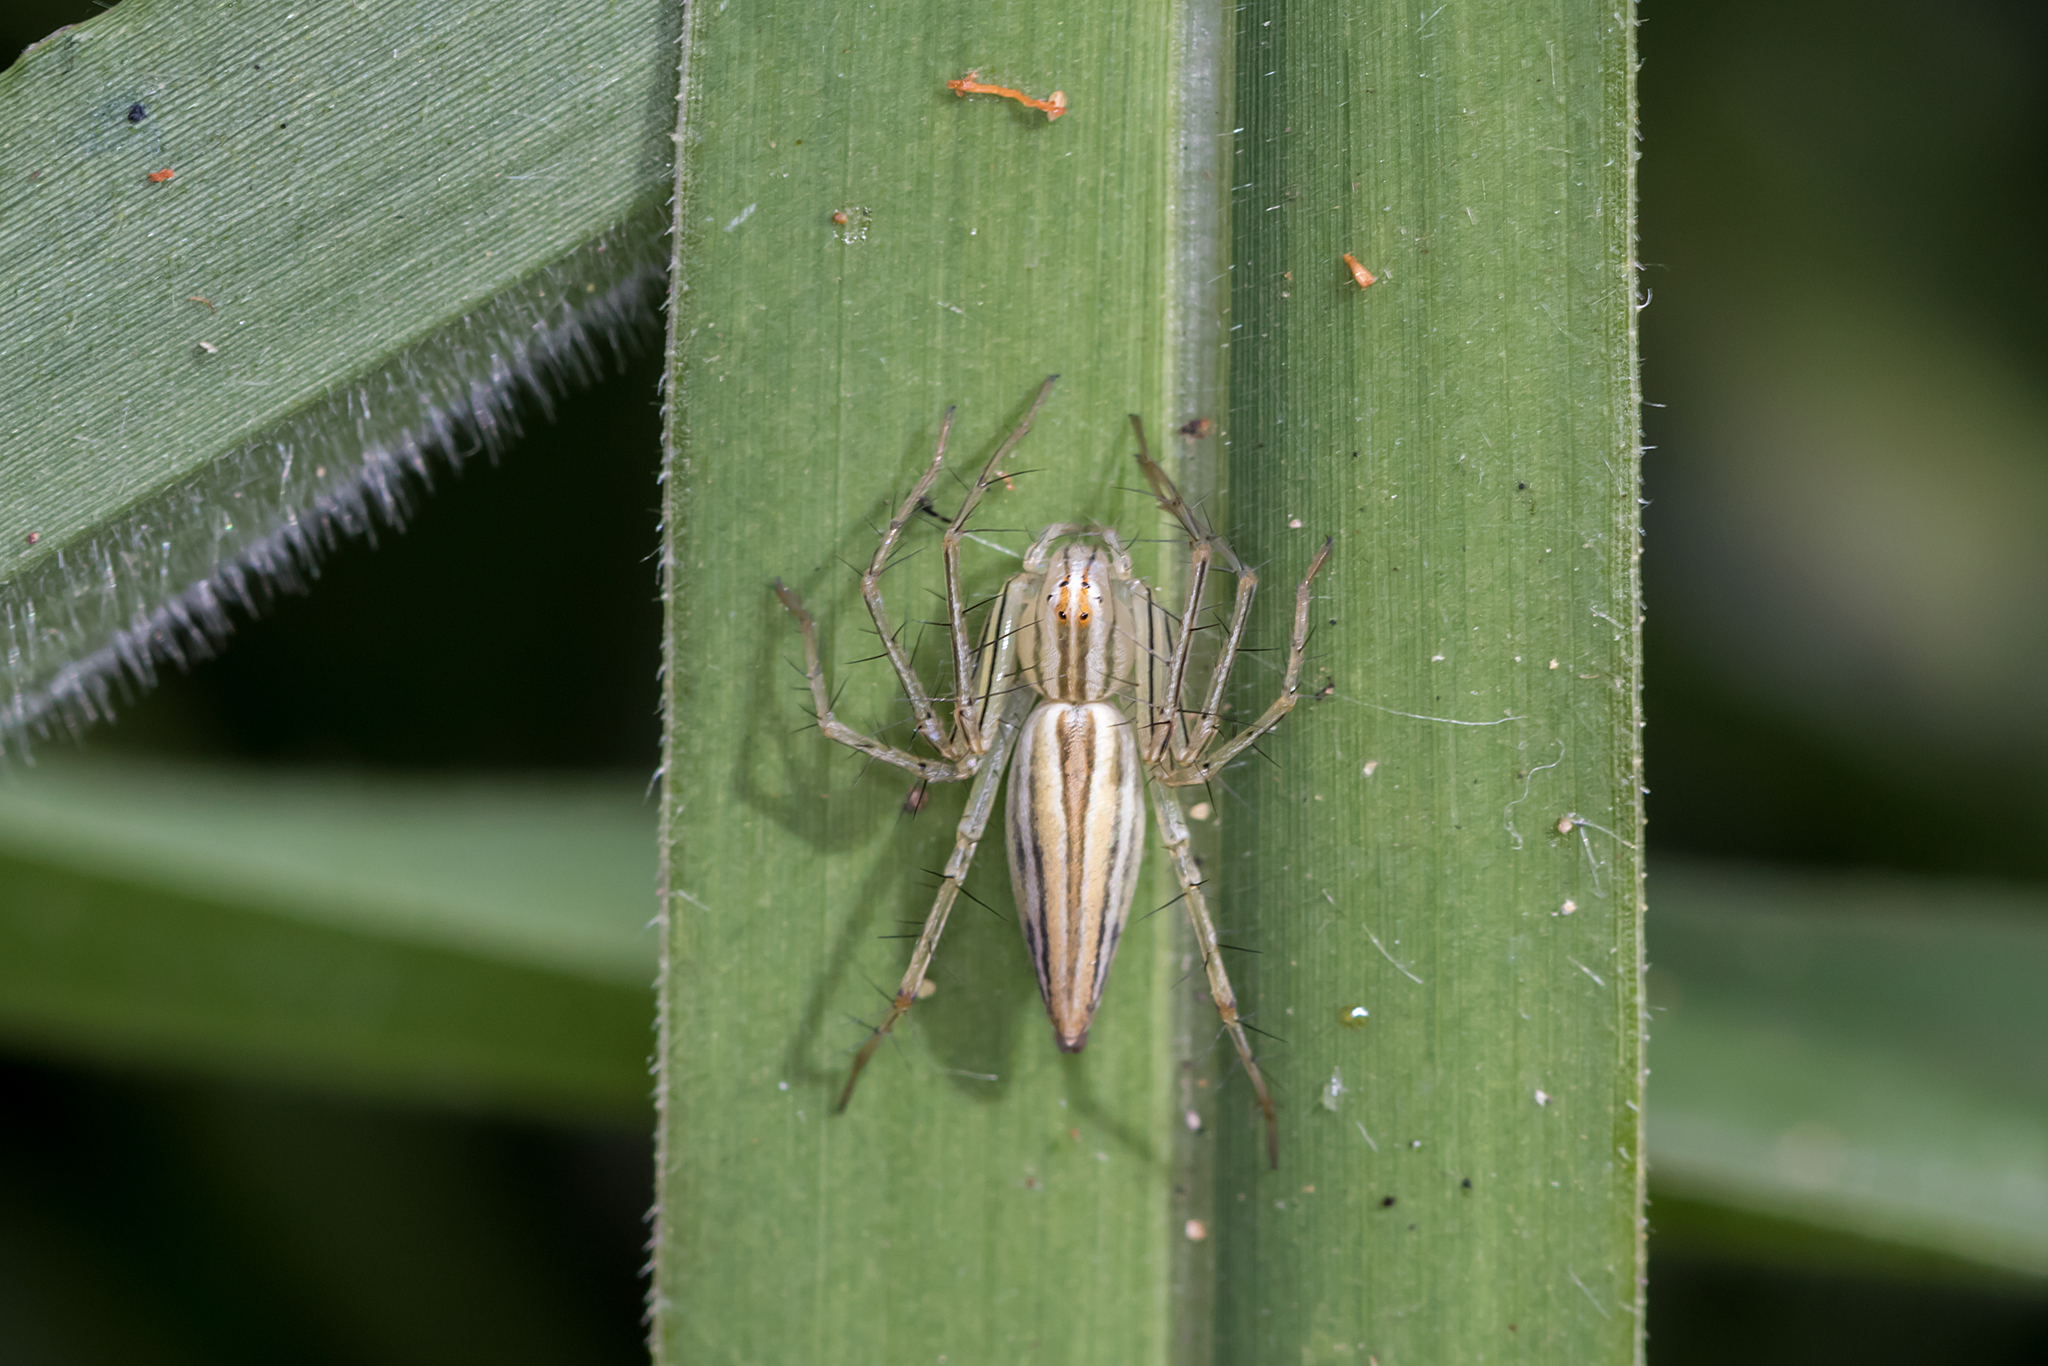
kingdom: Animalia
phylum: Arthropoda
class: Arachnida
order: Araneae
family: Oxyopidae
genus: Oxyopes
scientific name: Oxyopes macilentus
